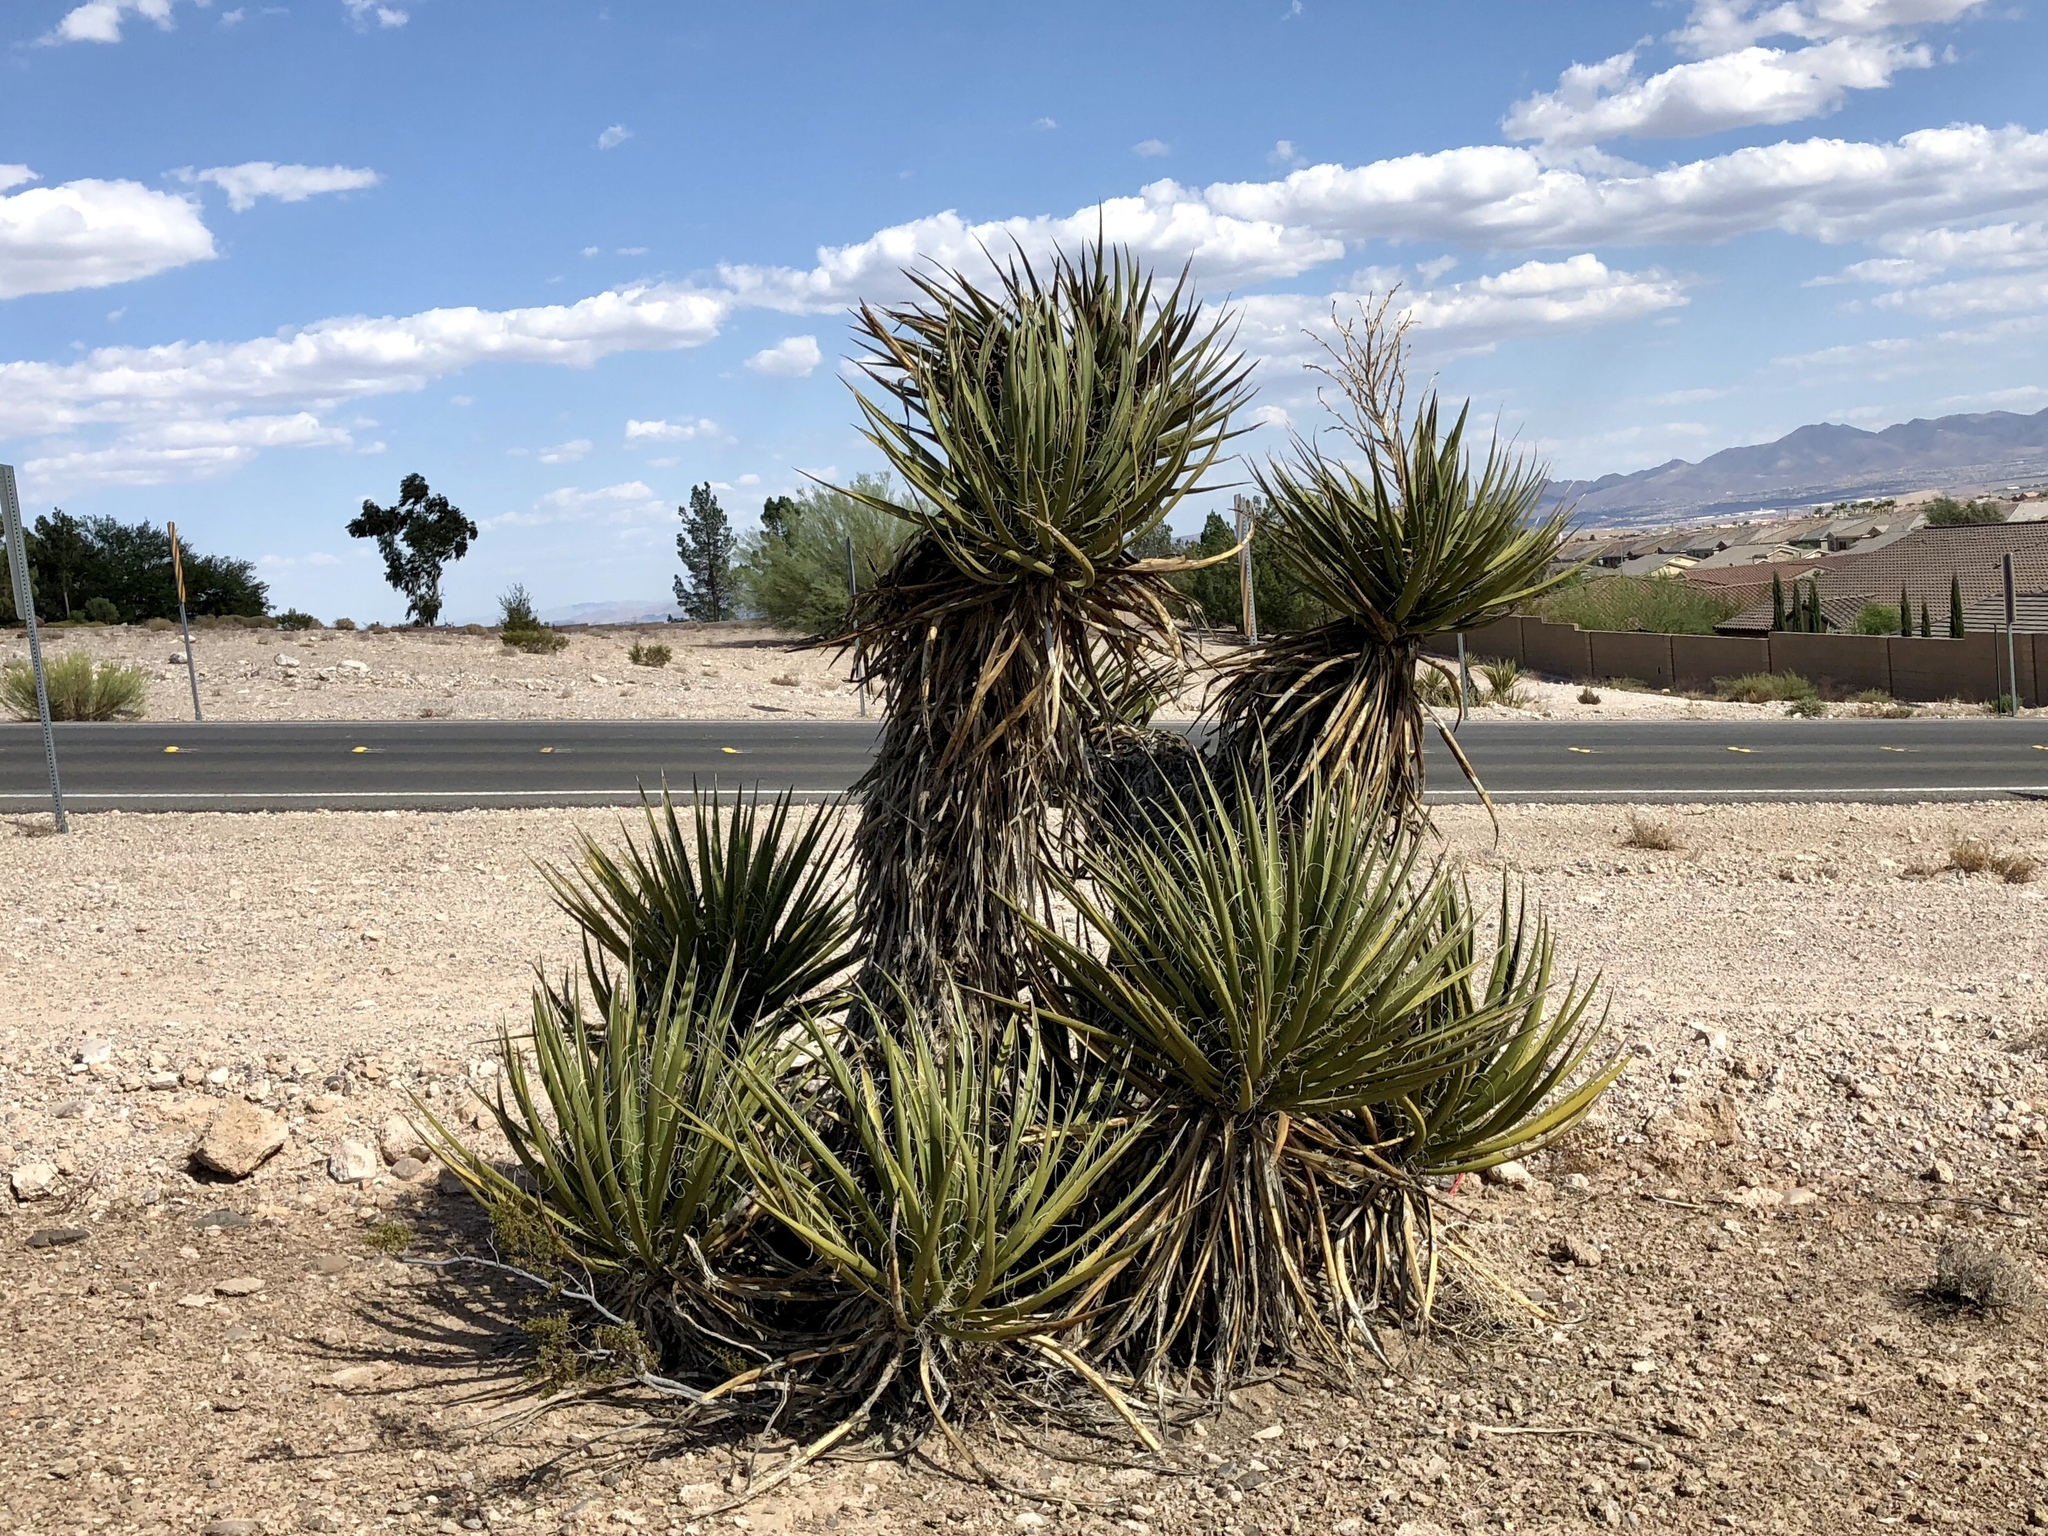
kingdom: Plantae
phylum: Tracheophyta
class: Liliopsida
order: Asparagales
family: Asparagaceae
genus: Yucca
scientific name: Yucca schidigera
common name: Mojave yucca
